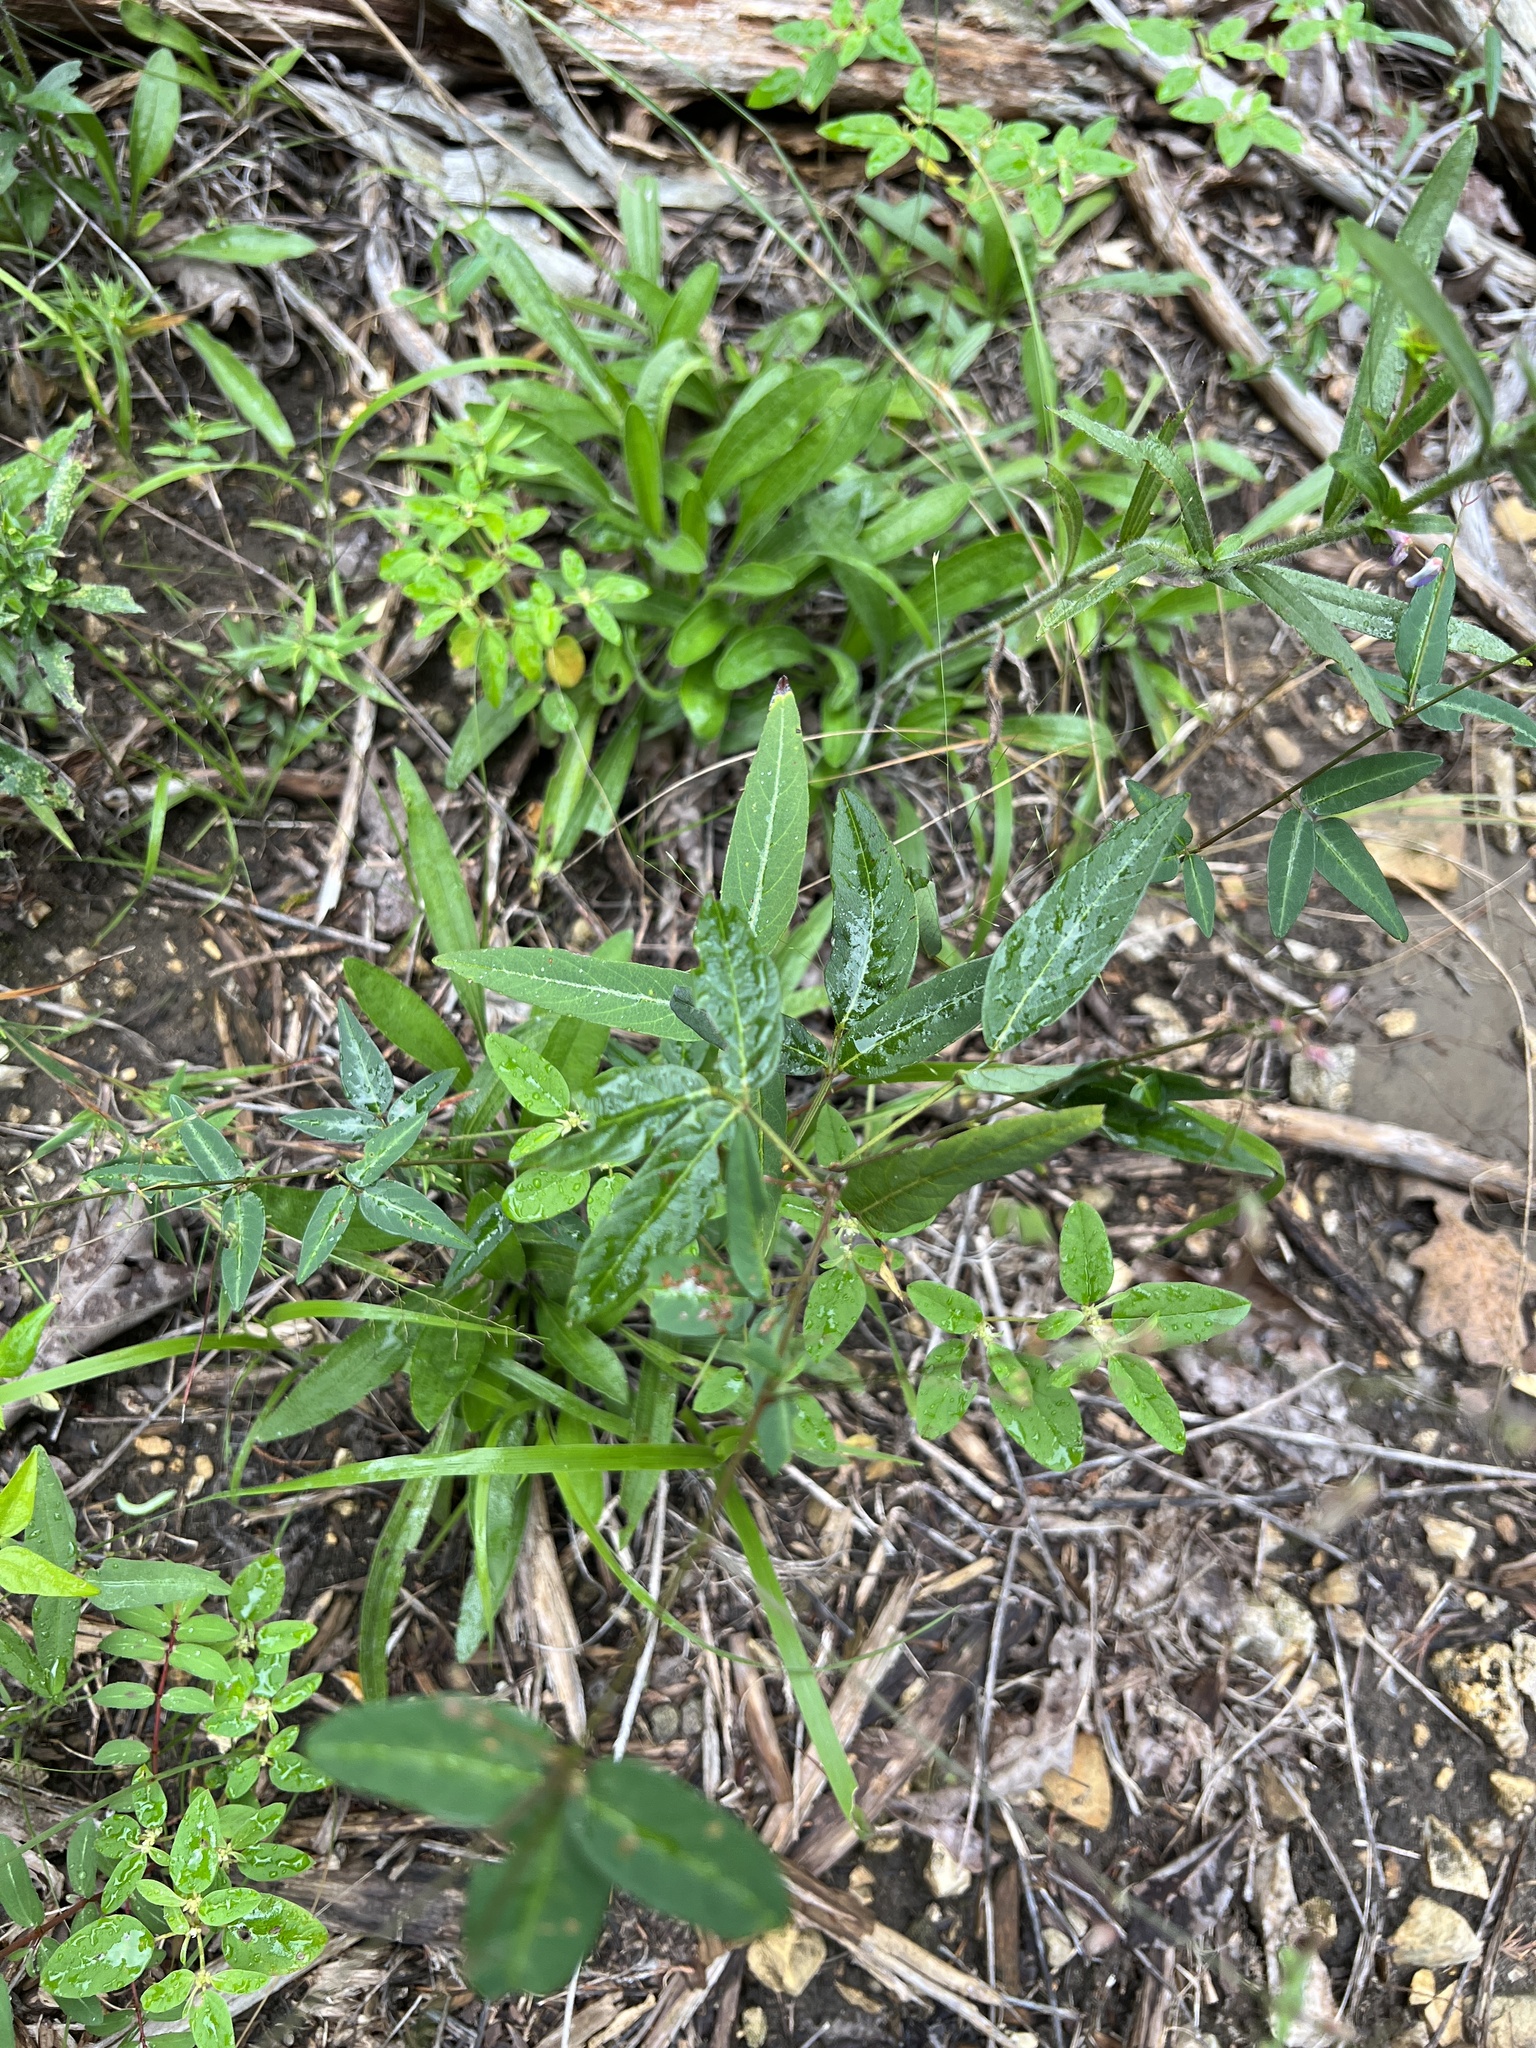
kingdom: Plantae
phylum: Tracheophyta
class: Magnoliopsida
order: Fabales
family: Fabaceae
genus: Desmodium
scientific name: Desmodium paniculatum
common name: Panicled tick-clover
